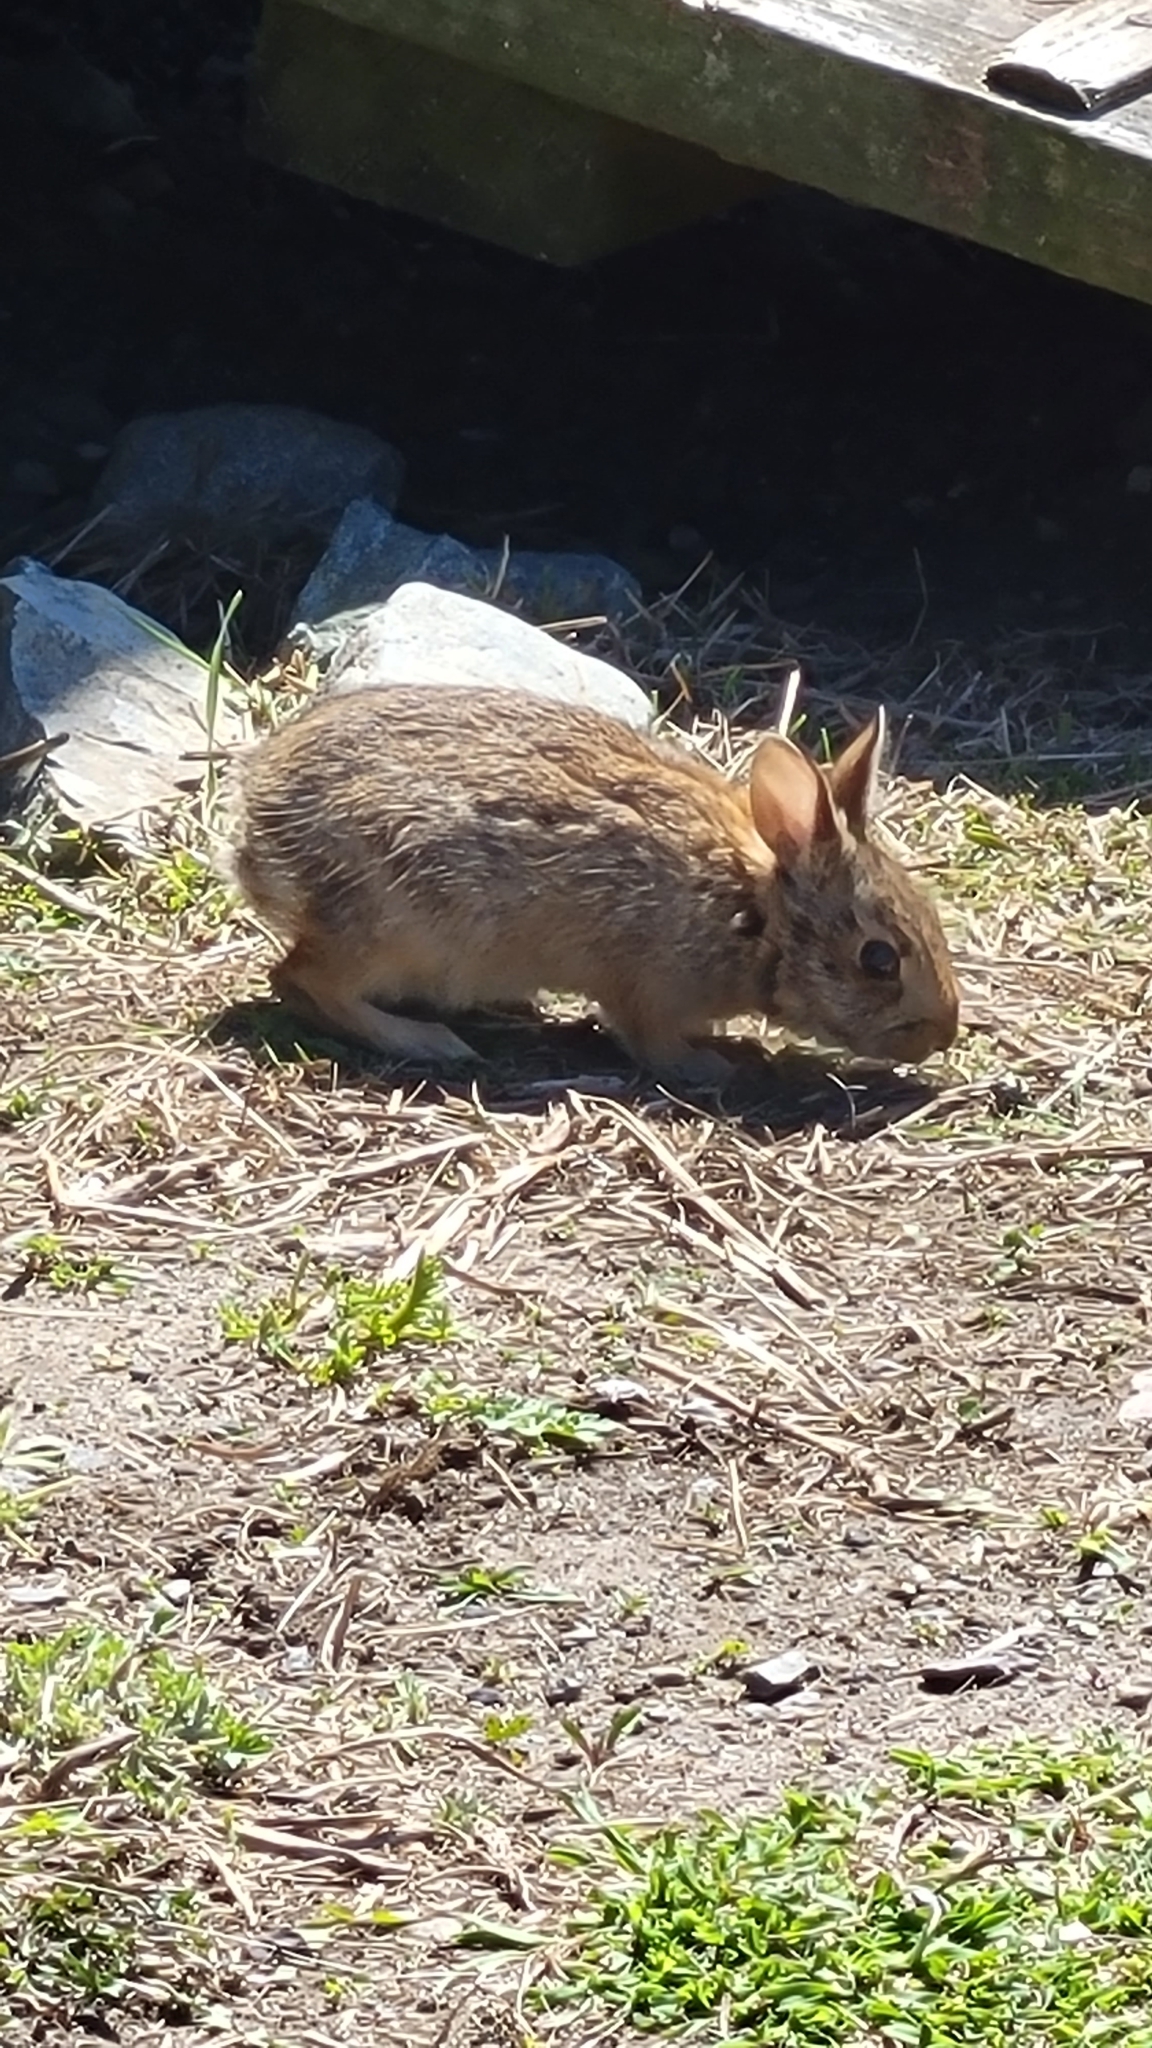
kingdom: Animalia
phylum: Chordata
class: Mammalia
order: Lagomorpha
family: Leporidae
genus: Sylvilagus
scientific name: Sylvilagus floridanus
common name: Eastern cottontail
